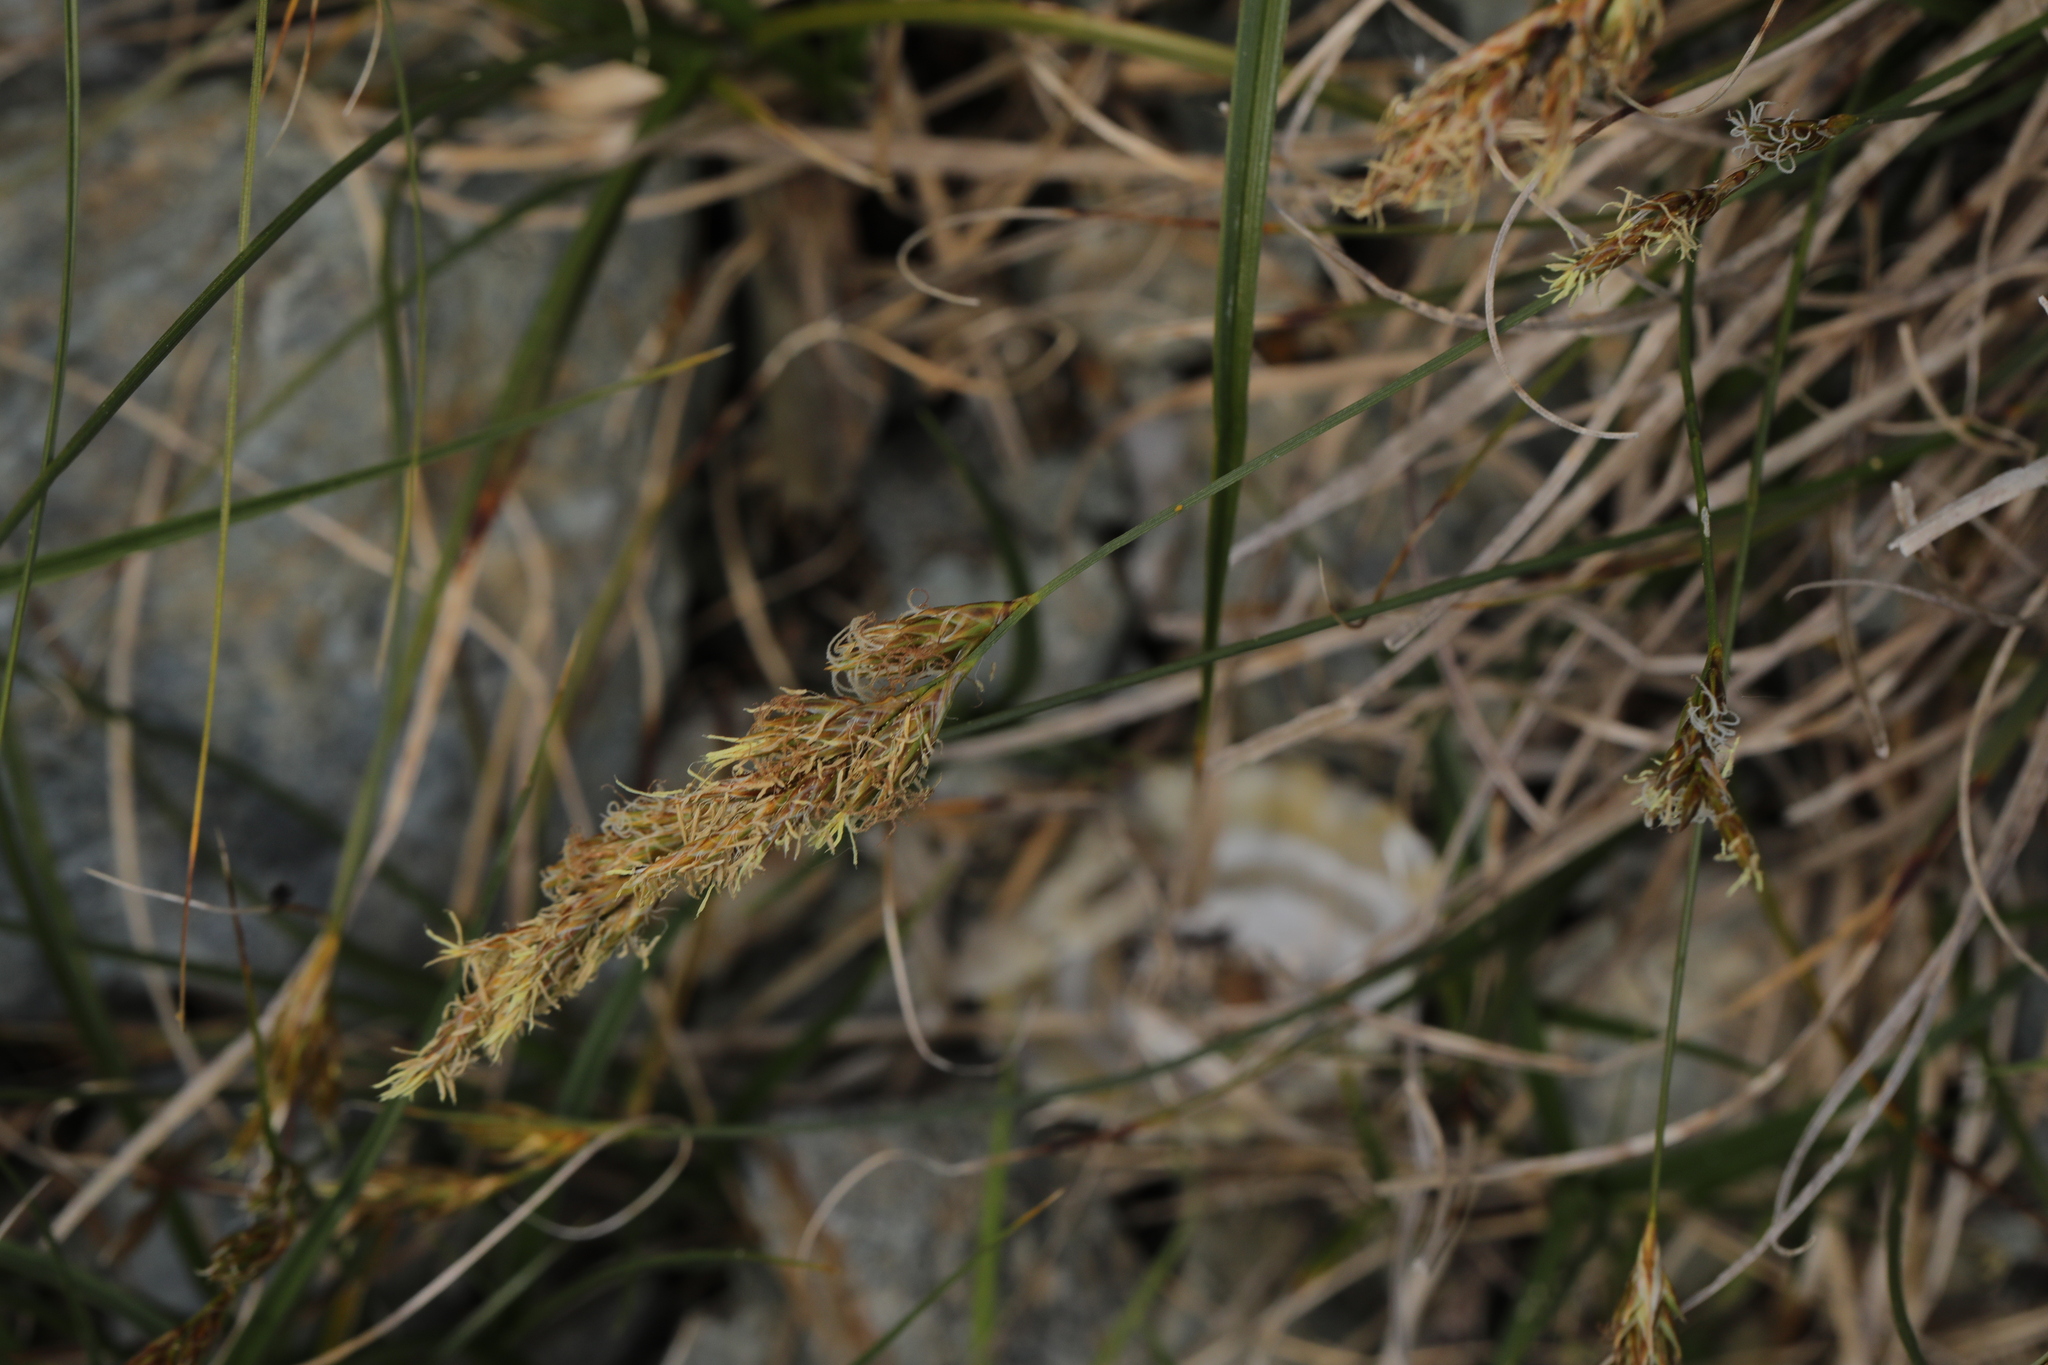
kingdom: Plantae
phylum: Tracheophyta
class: Liliopsida
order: Poales
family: Cyperaceae
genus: Carex
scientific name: Carex arenaria
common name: Sand sedge
